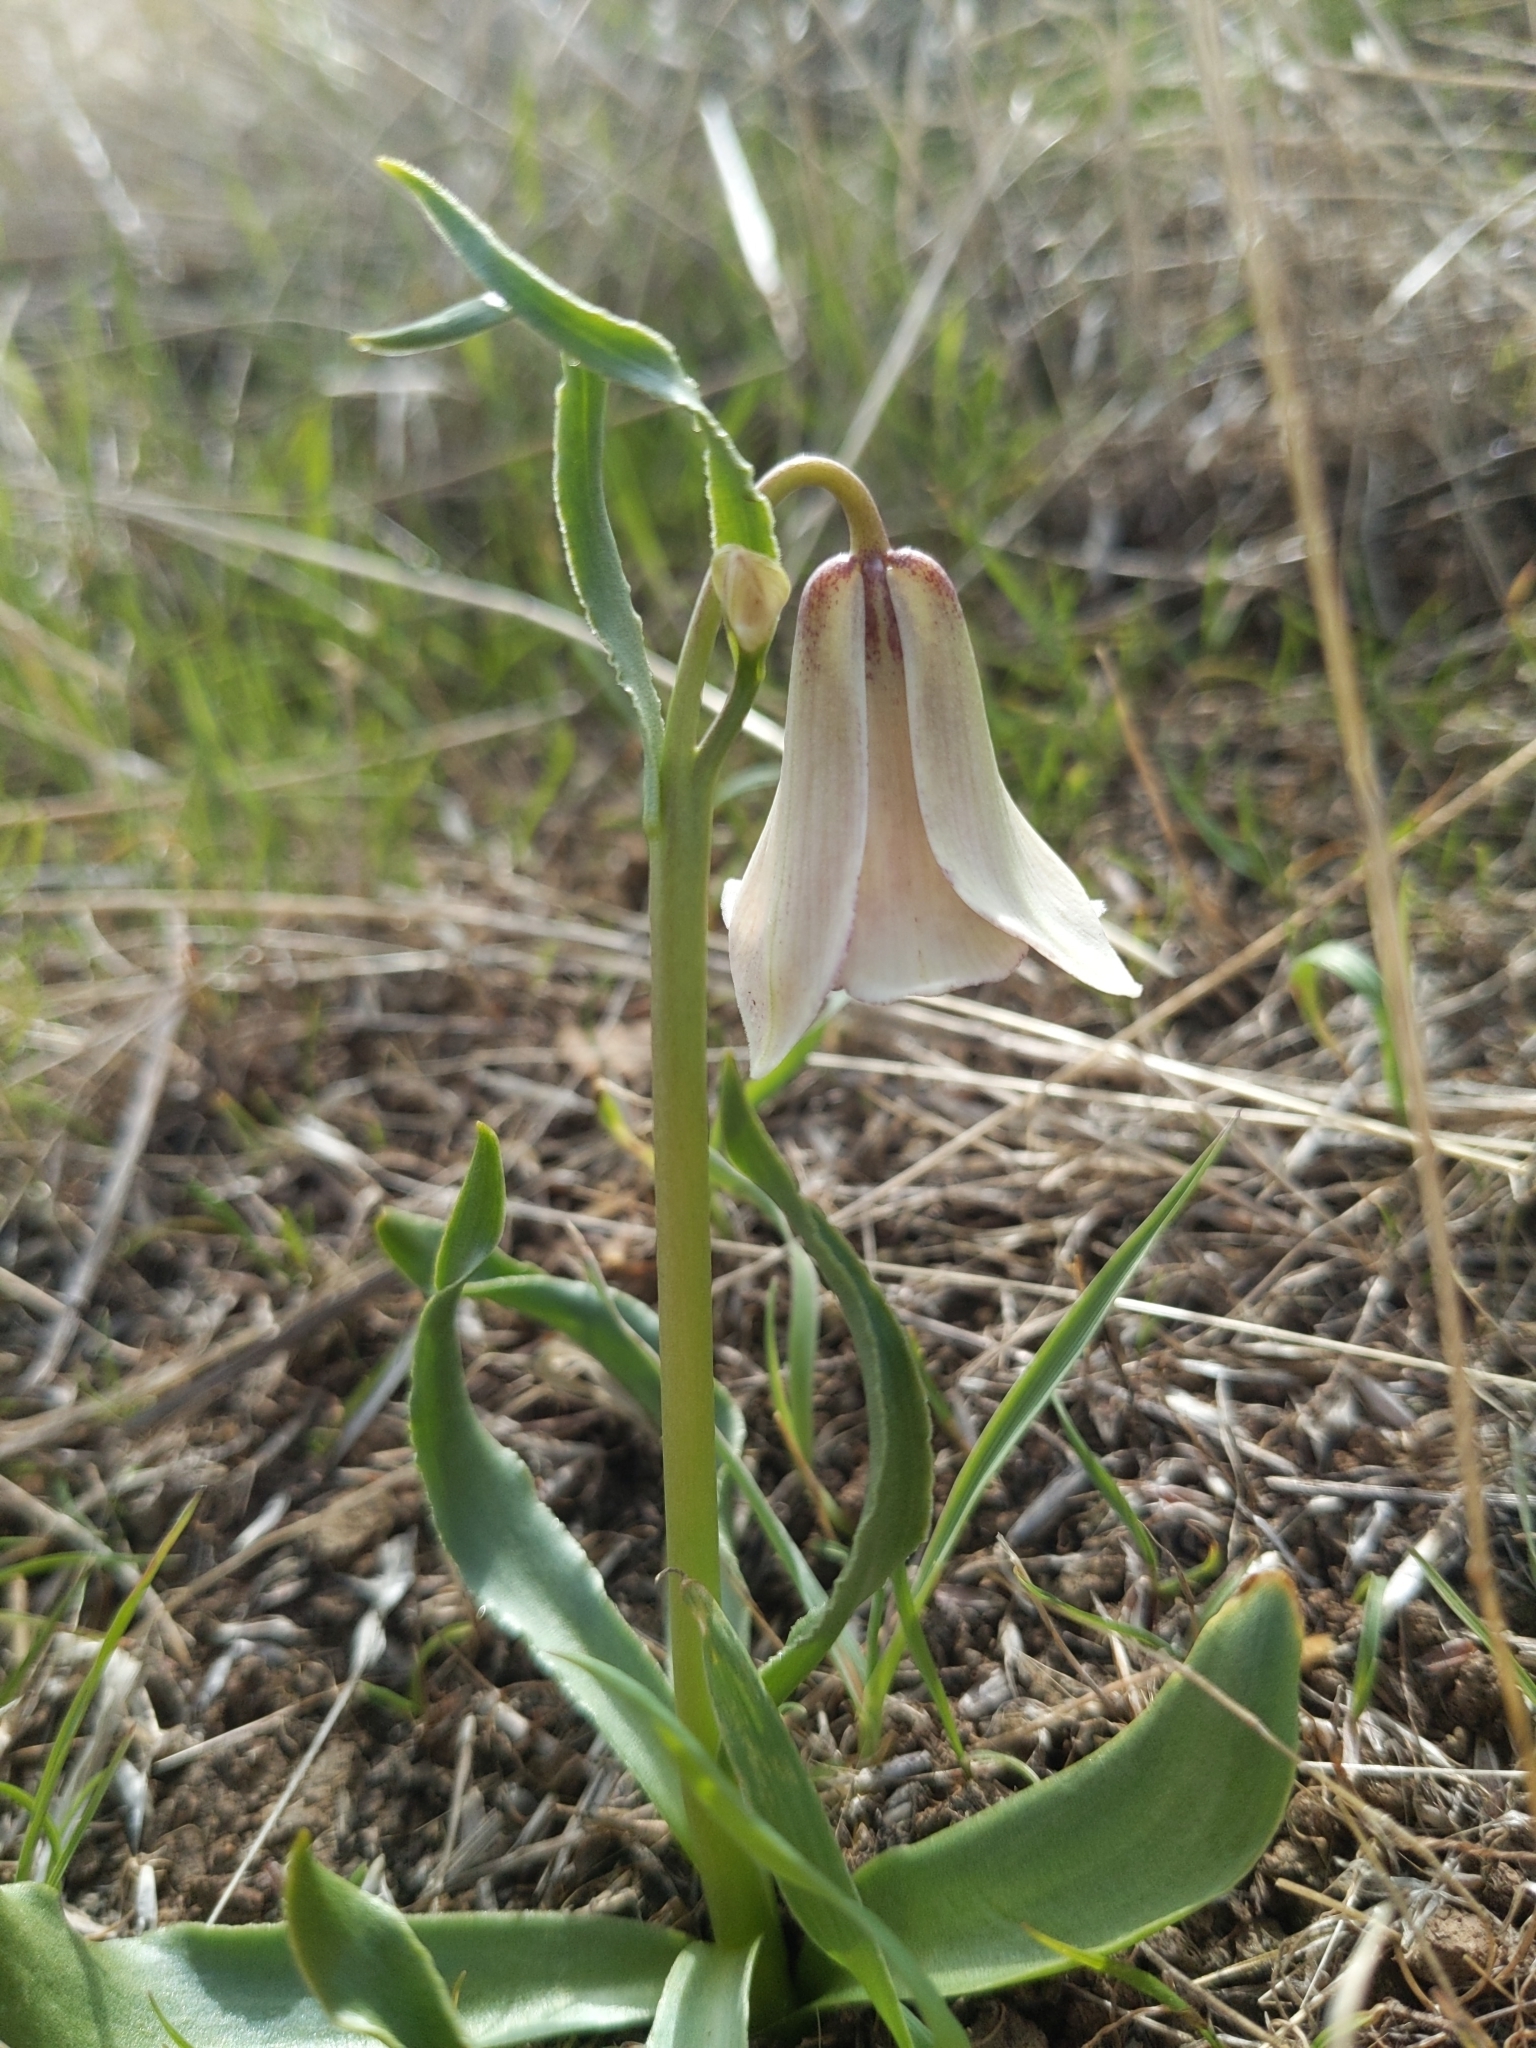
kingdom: Plantae
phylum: Tracheophyta
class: Liliopsida
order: Liliales
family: Liliaceae
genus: Fritillaria
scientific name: Fritillaria striata
